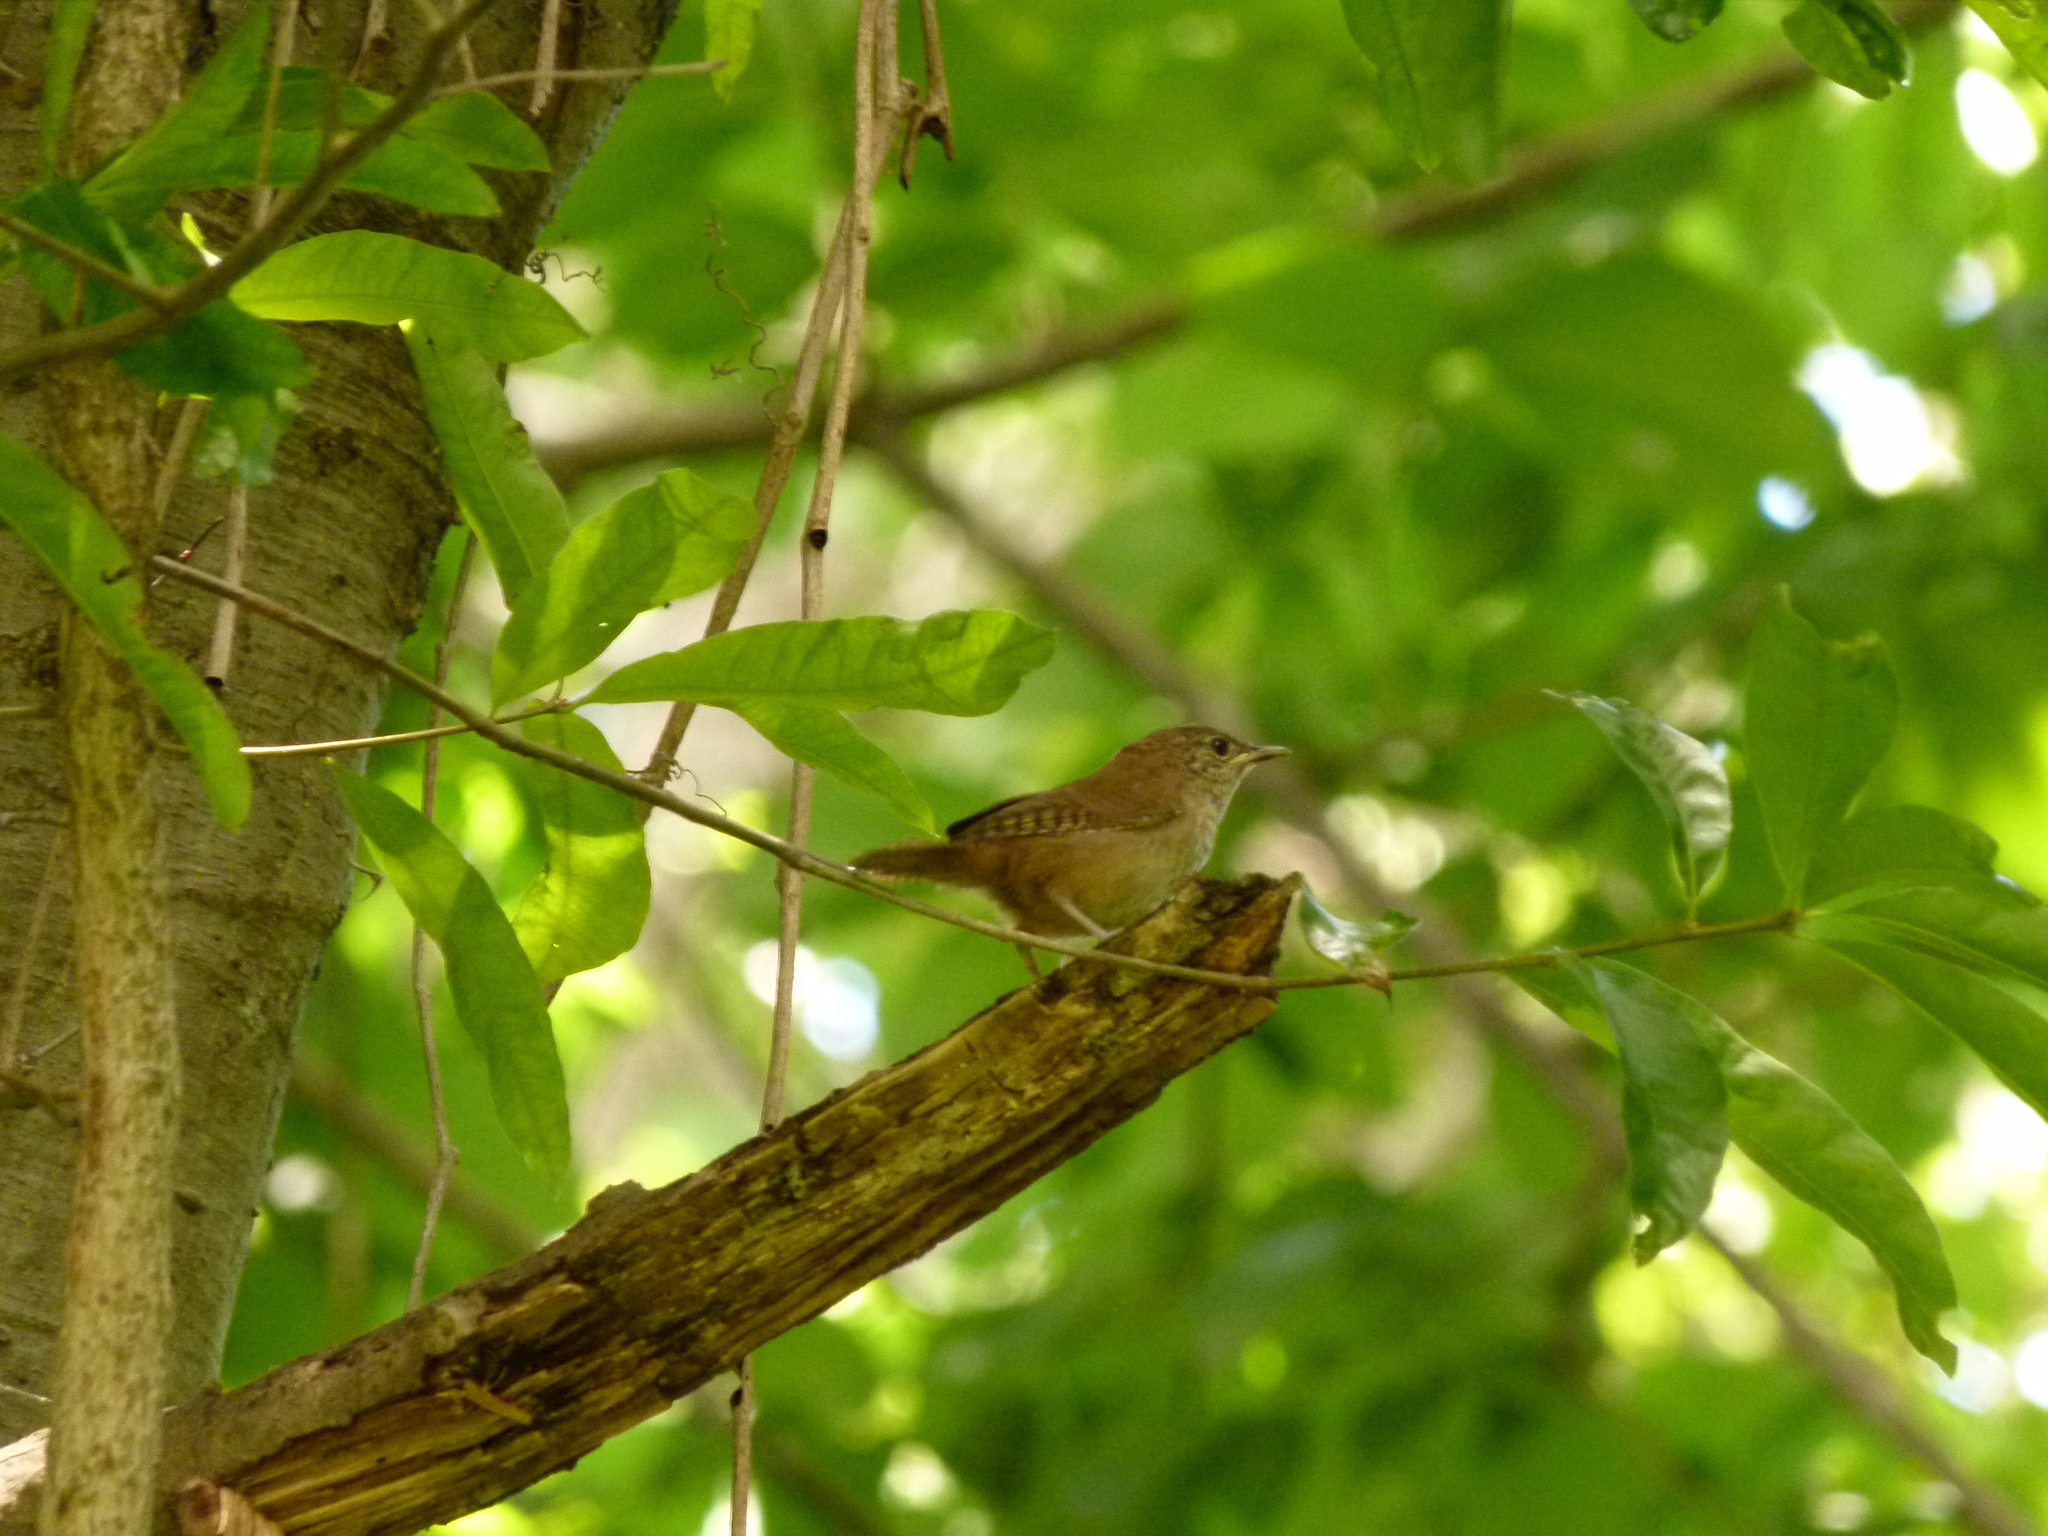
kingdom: Animalia
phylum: Chordata
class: Aves
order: Passeriformes
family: Troglodytidae
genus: Troglodytes
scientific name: Troglodytes aedon
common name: House wren
